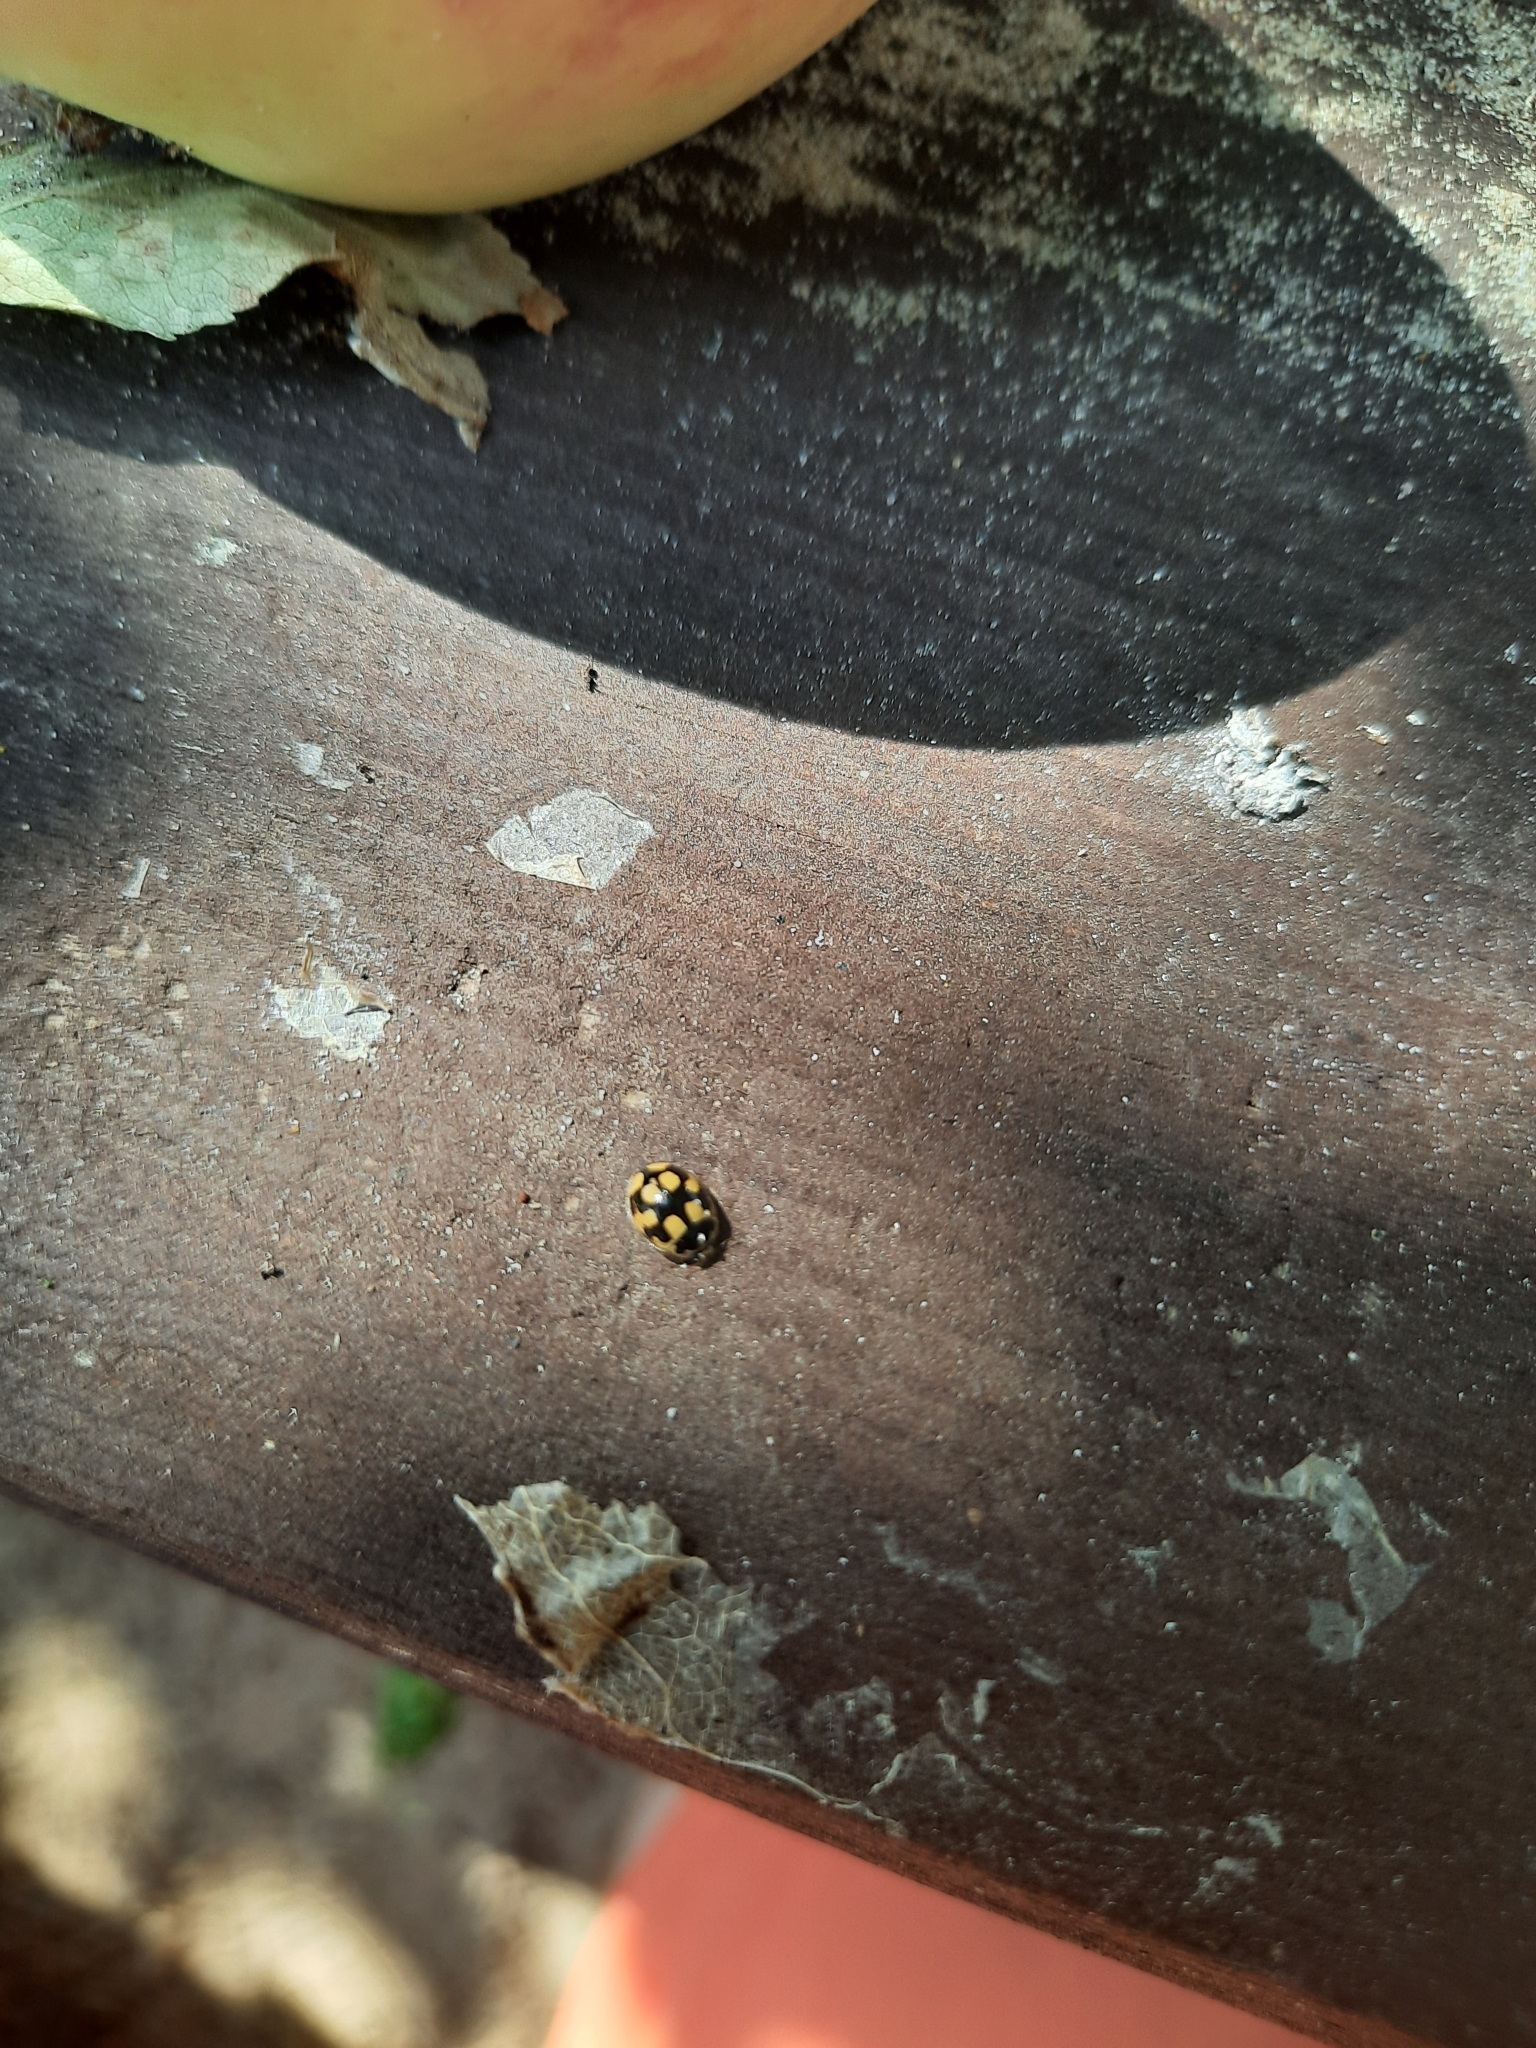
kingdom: Animalia
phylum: Arthropoda
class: Insecta
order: Coleoptera
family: Coccinellidae
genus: Propylaea
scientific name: Propylaea quatuordecimpunctata
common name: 14-spotted ladybird beetle
